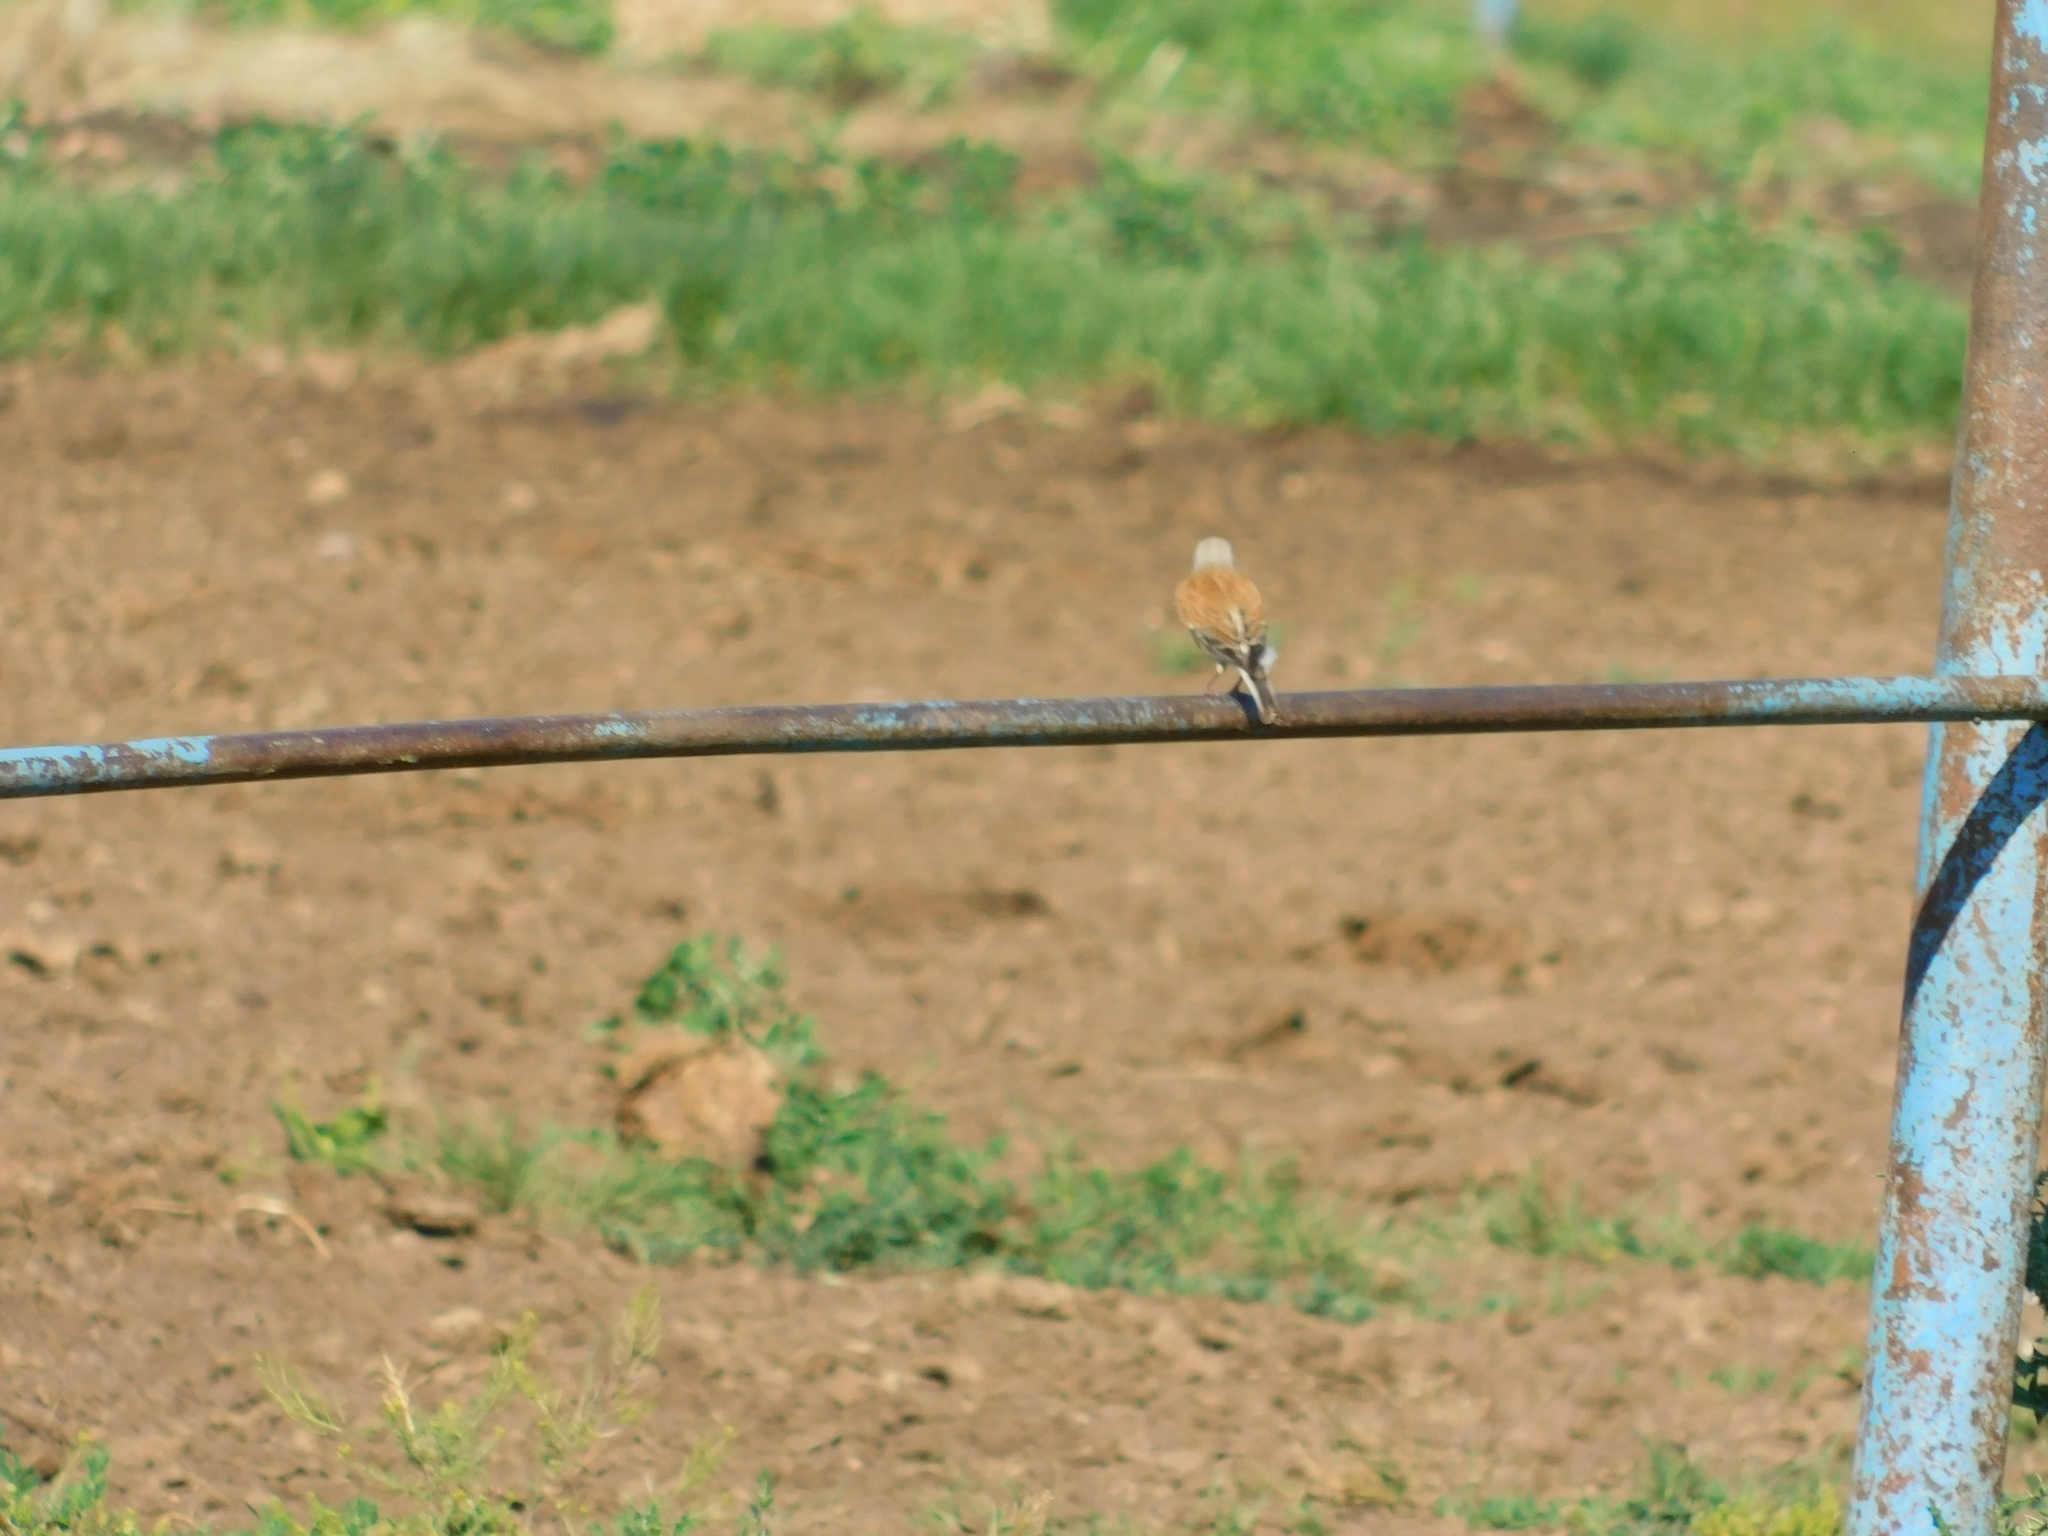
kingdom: Animalia
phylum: Chordata
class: Aves
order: Passeriformes
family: Fringillidae
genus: Linaria
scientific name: Linaria cannabina
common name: Common linnet
